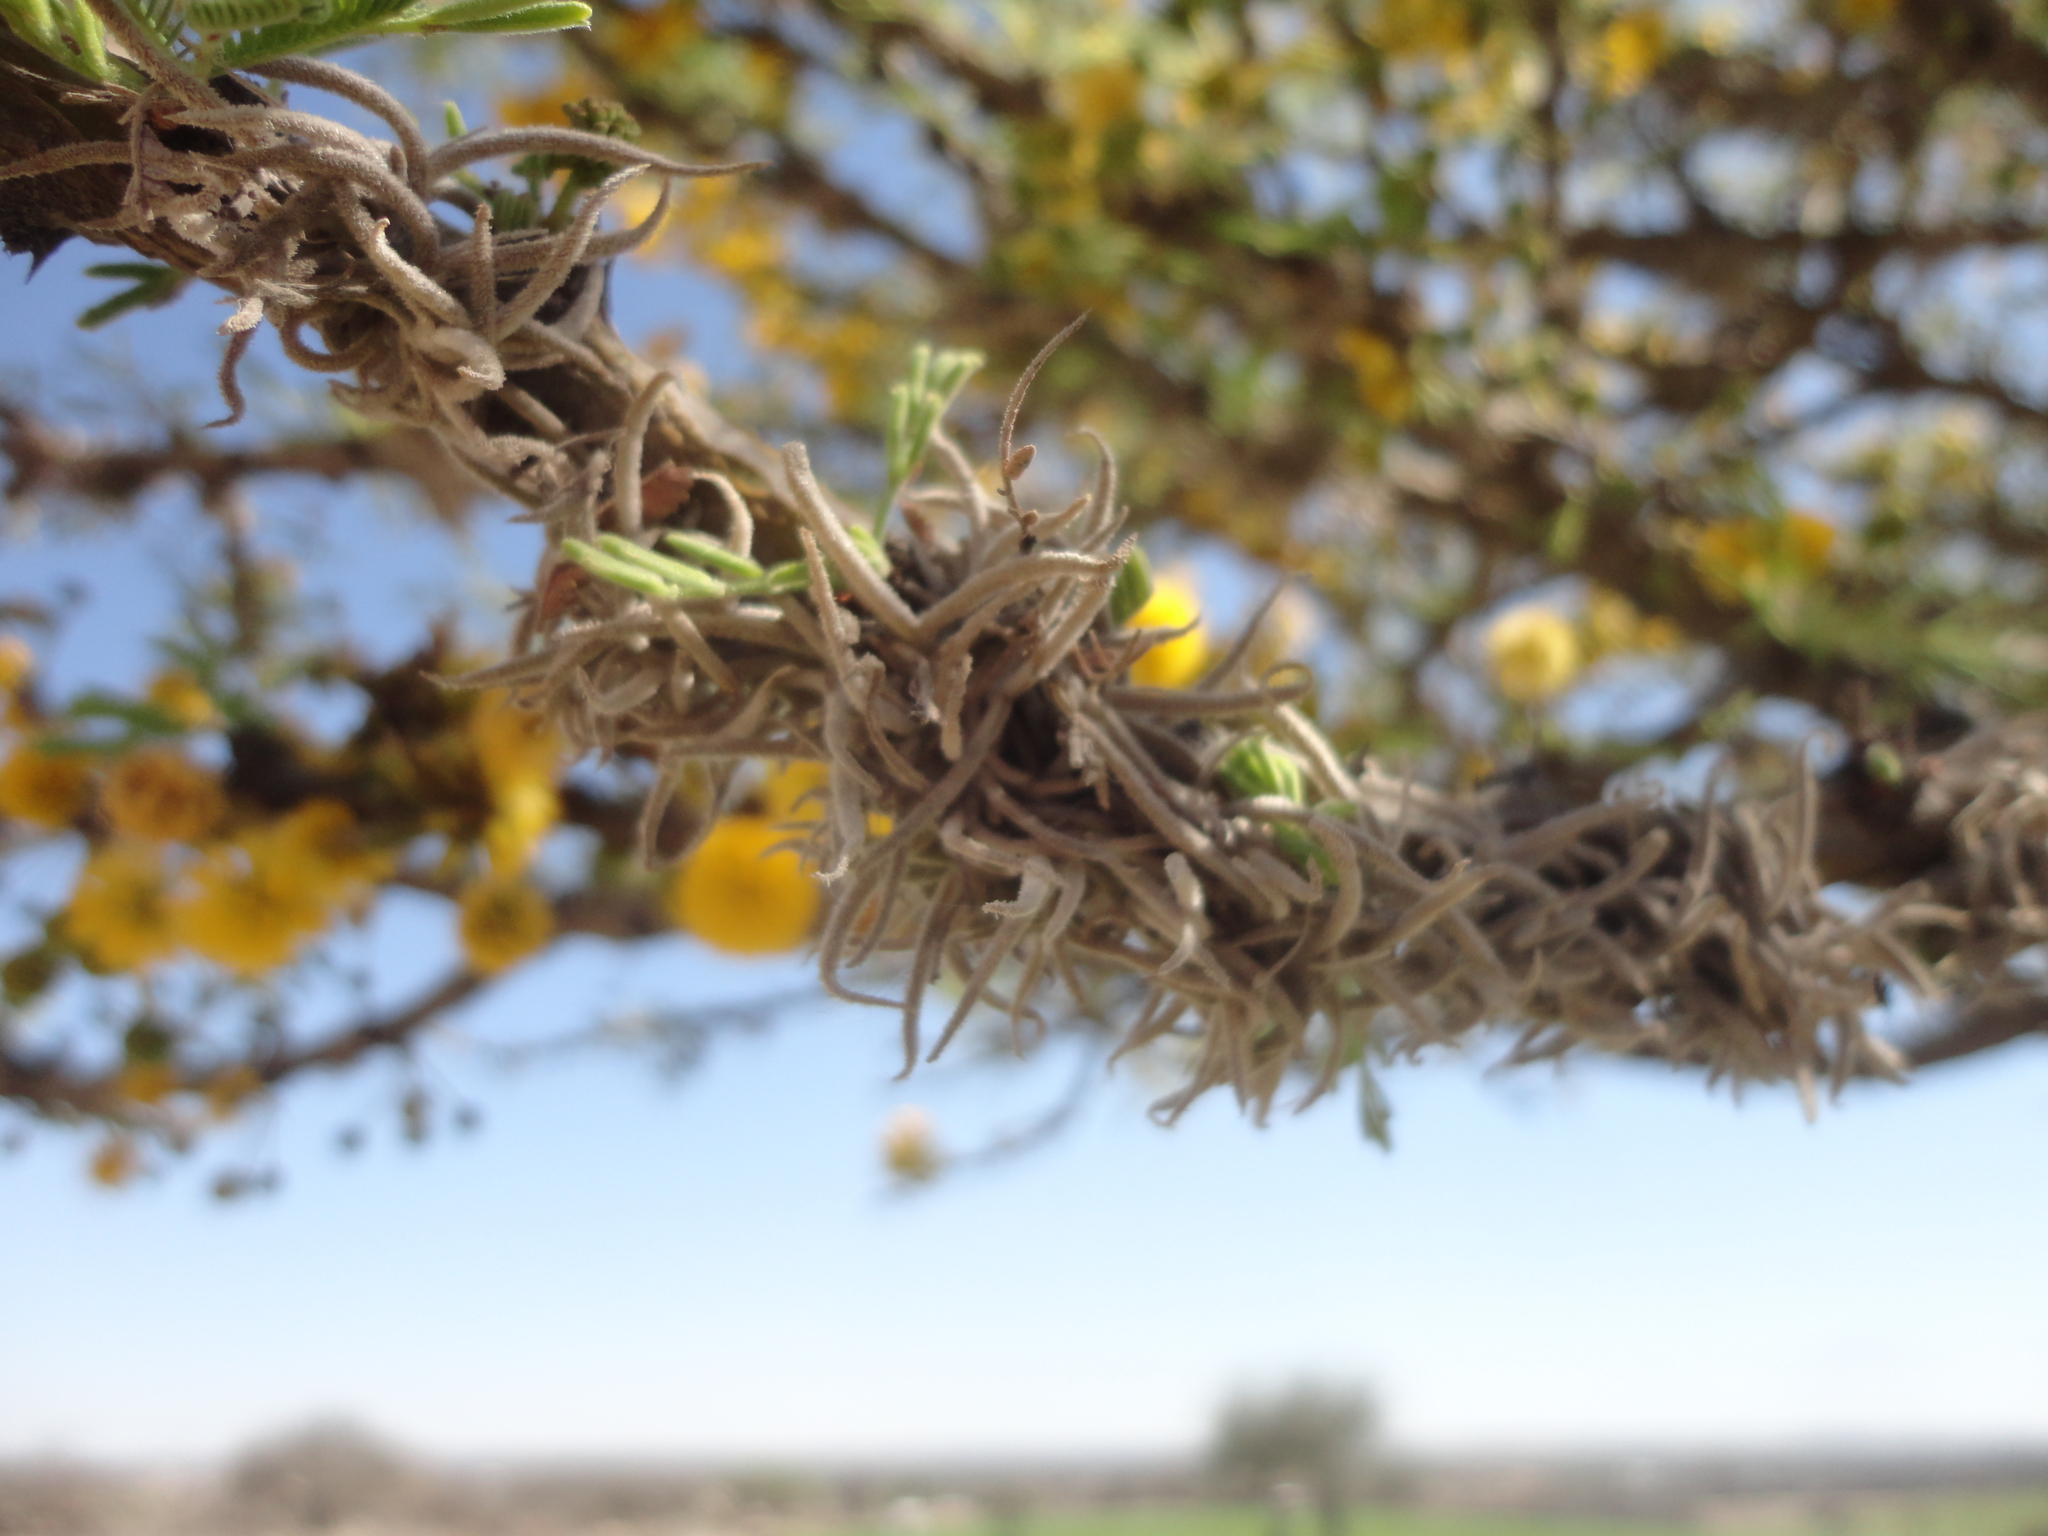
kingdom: Plantae
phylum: Tracheophyta
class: Liliopsida
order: Poales
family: Bromeliaceae
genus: Tillandsia
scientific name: Tillandsia recurvata
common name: Small ballmoss
